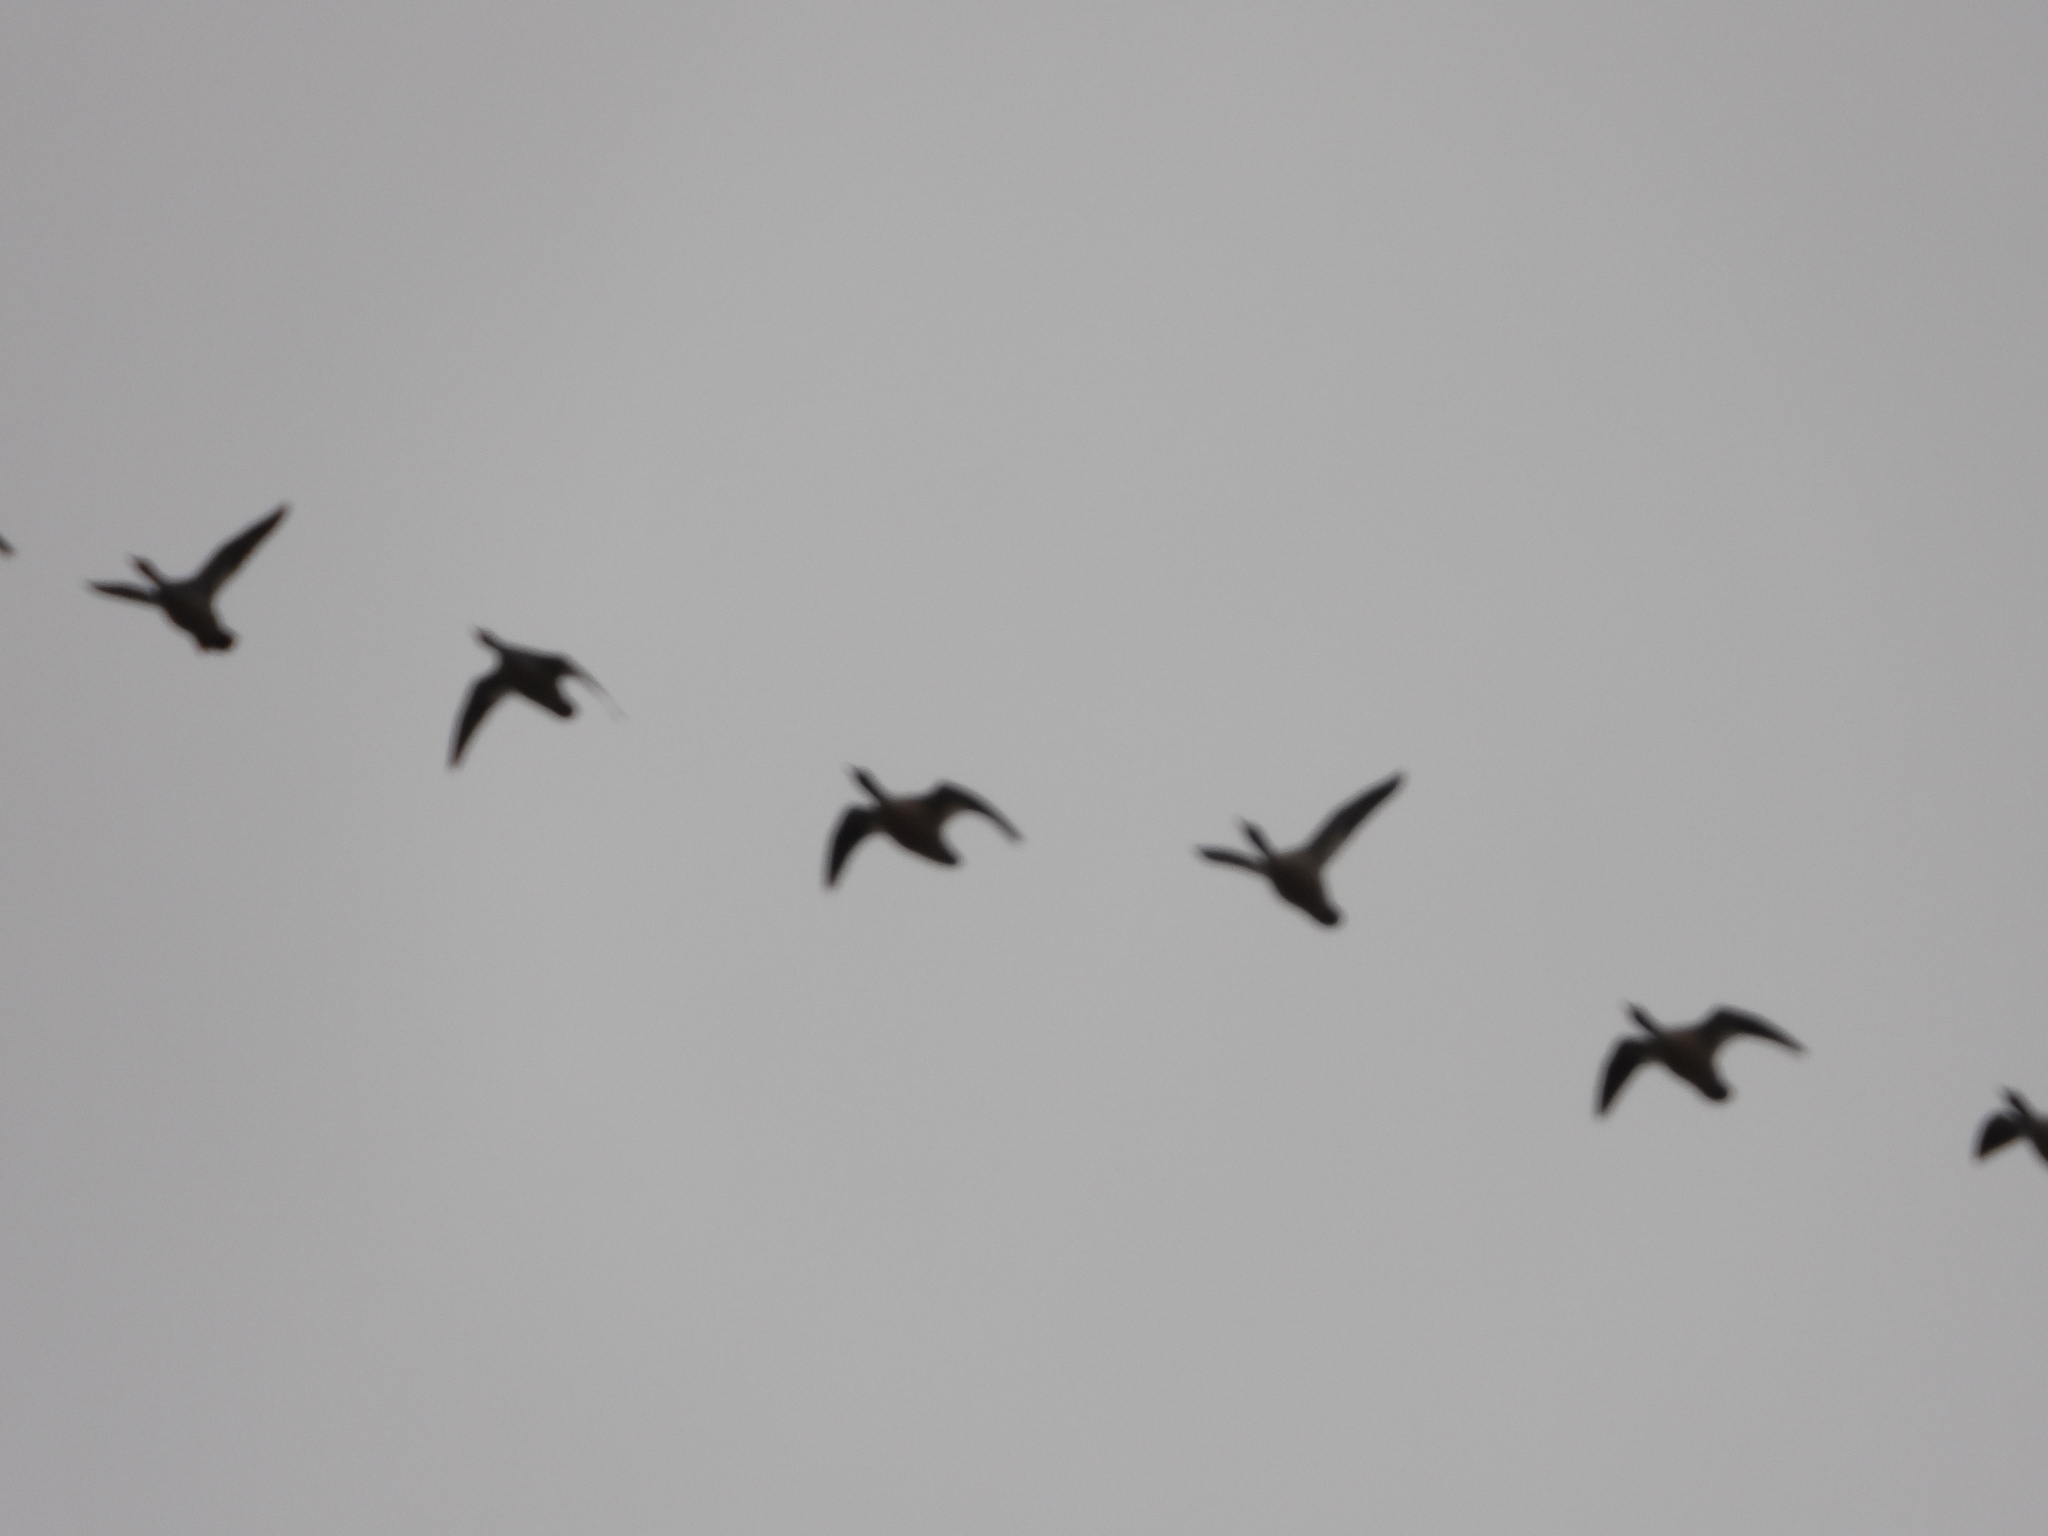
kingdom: Animalia
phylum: Chordata
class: Aves
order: Anseriformes
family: Anatidae
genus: Mergus
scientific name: Mergus merganser
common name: Common merganser
